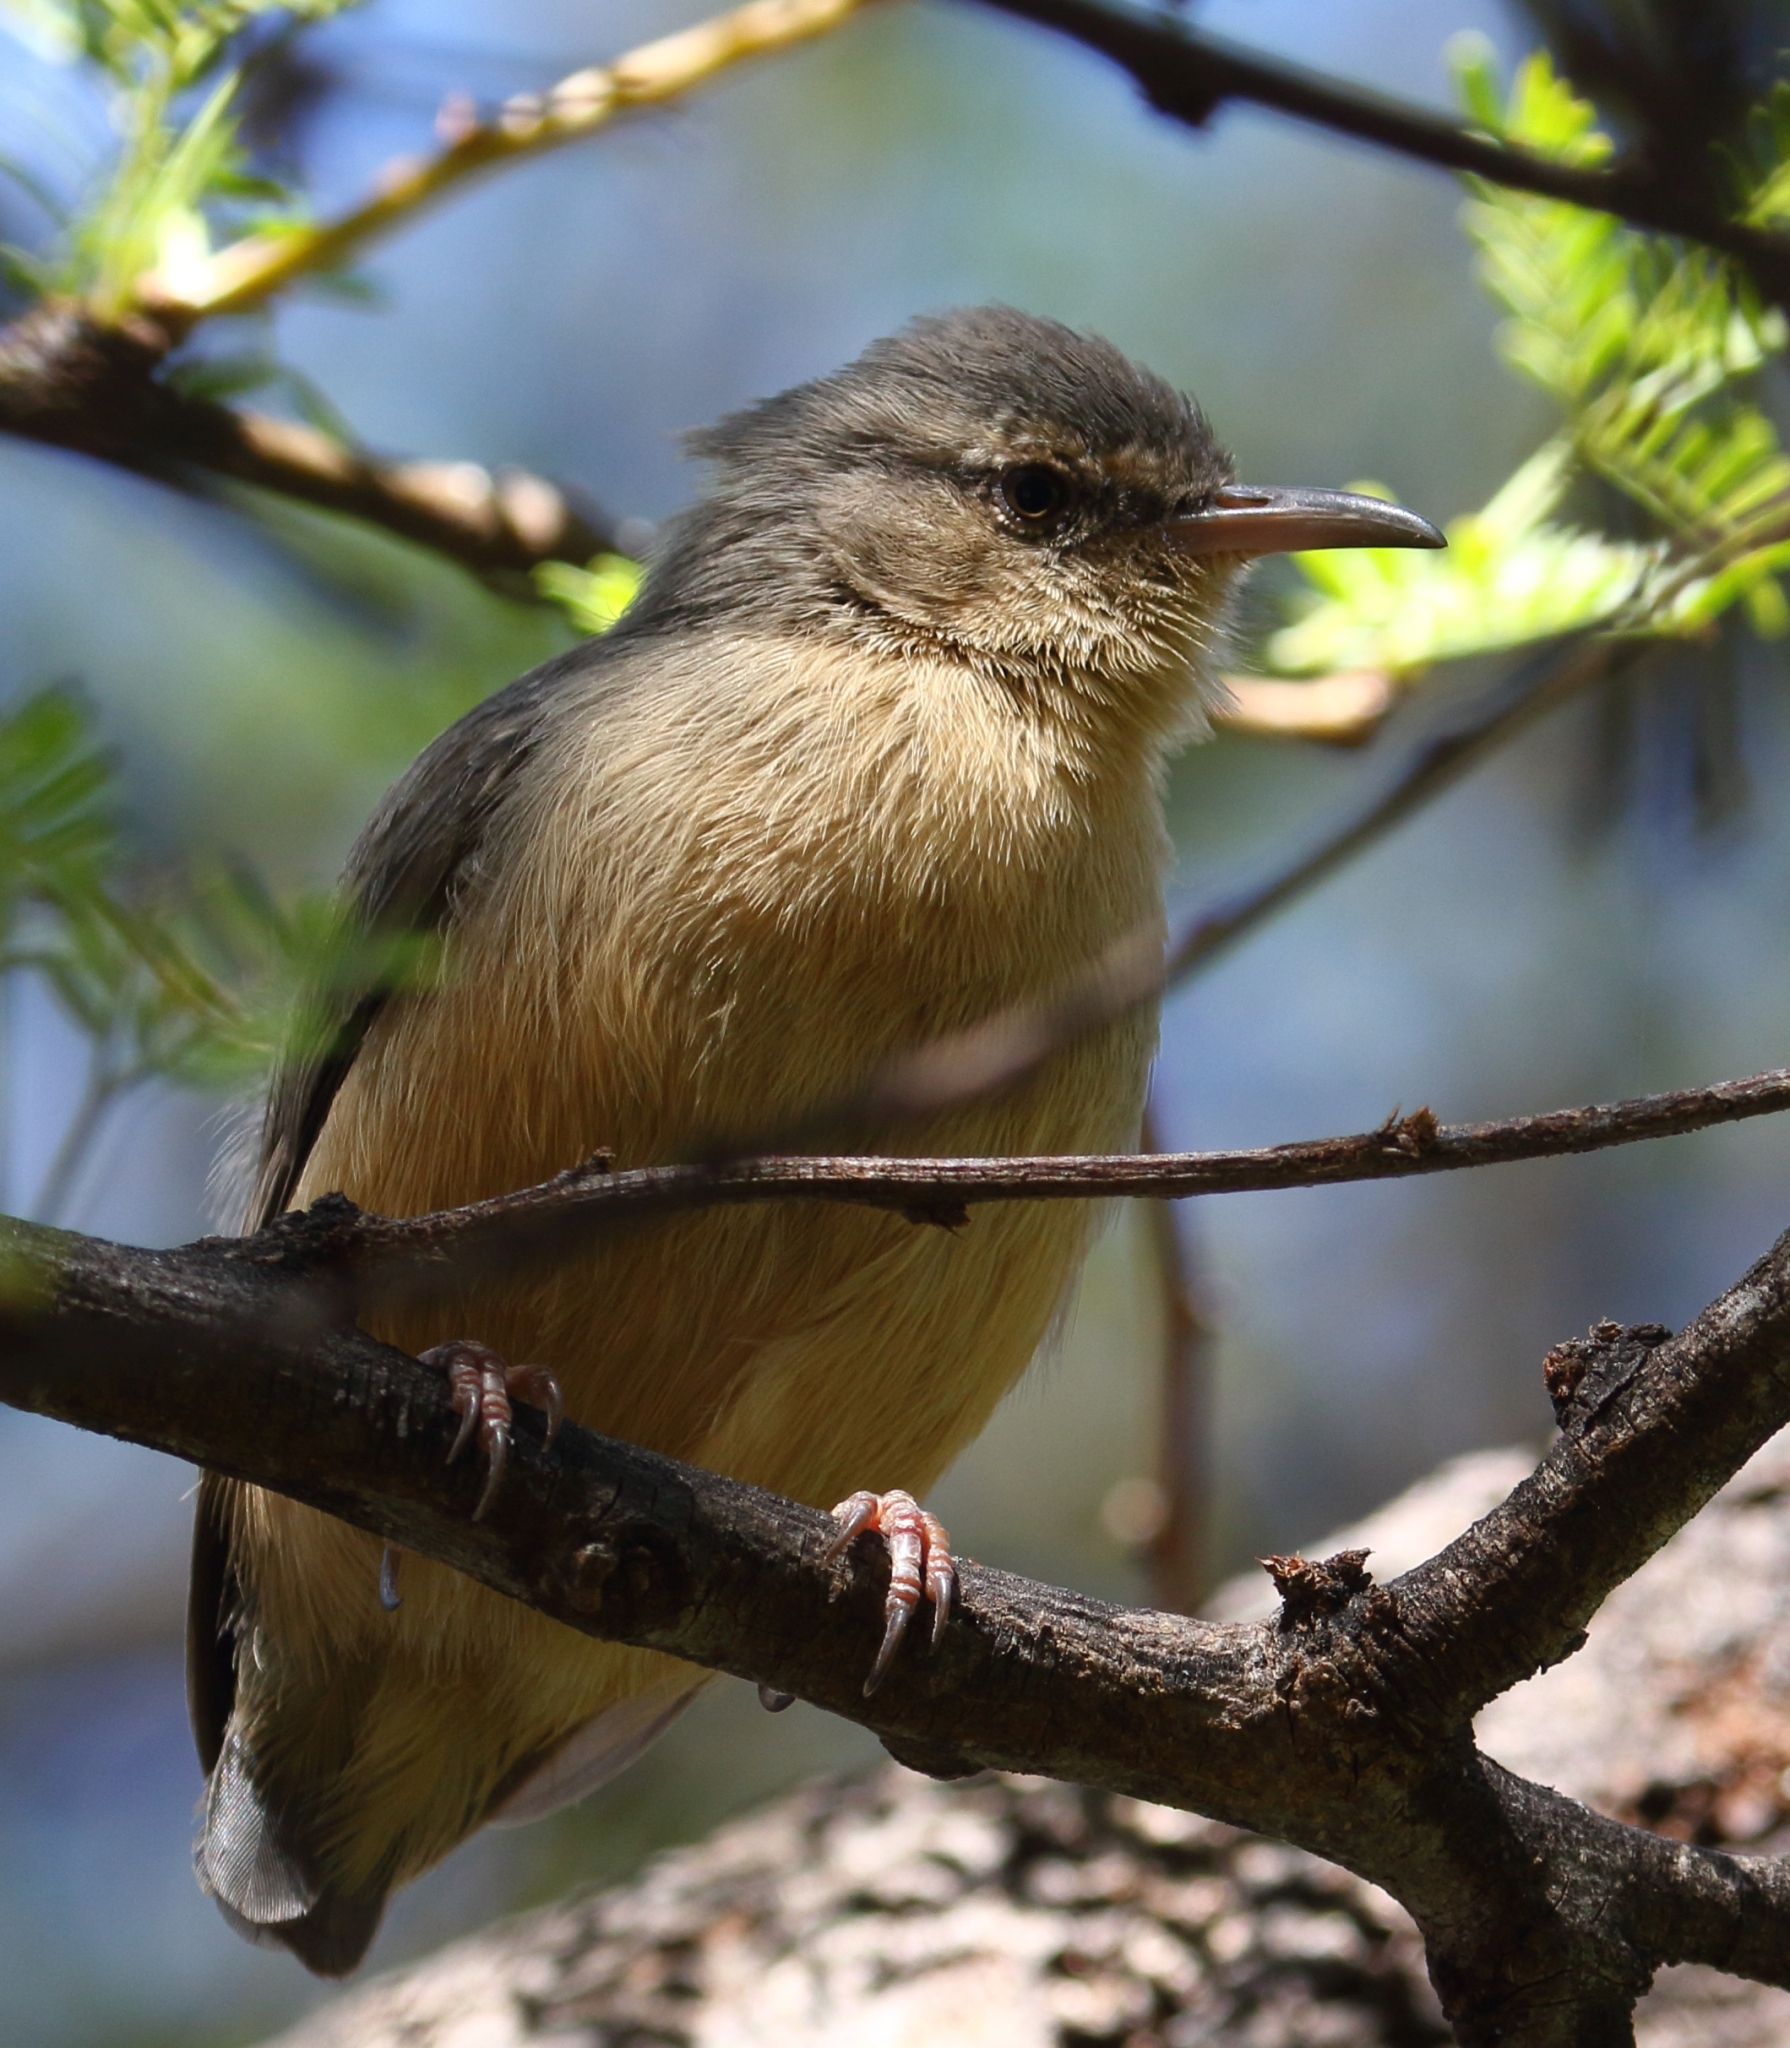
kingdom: Animalia
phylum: Chordata
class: Aves
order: Passeriformes
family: Macrosphenidae
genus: Sylvietta
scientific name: Sylvietta rufescens
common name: Long-billed crombec
